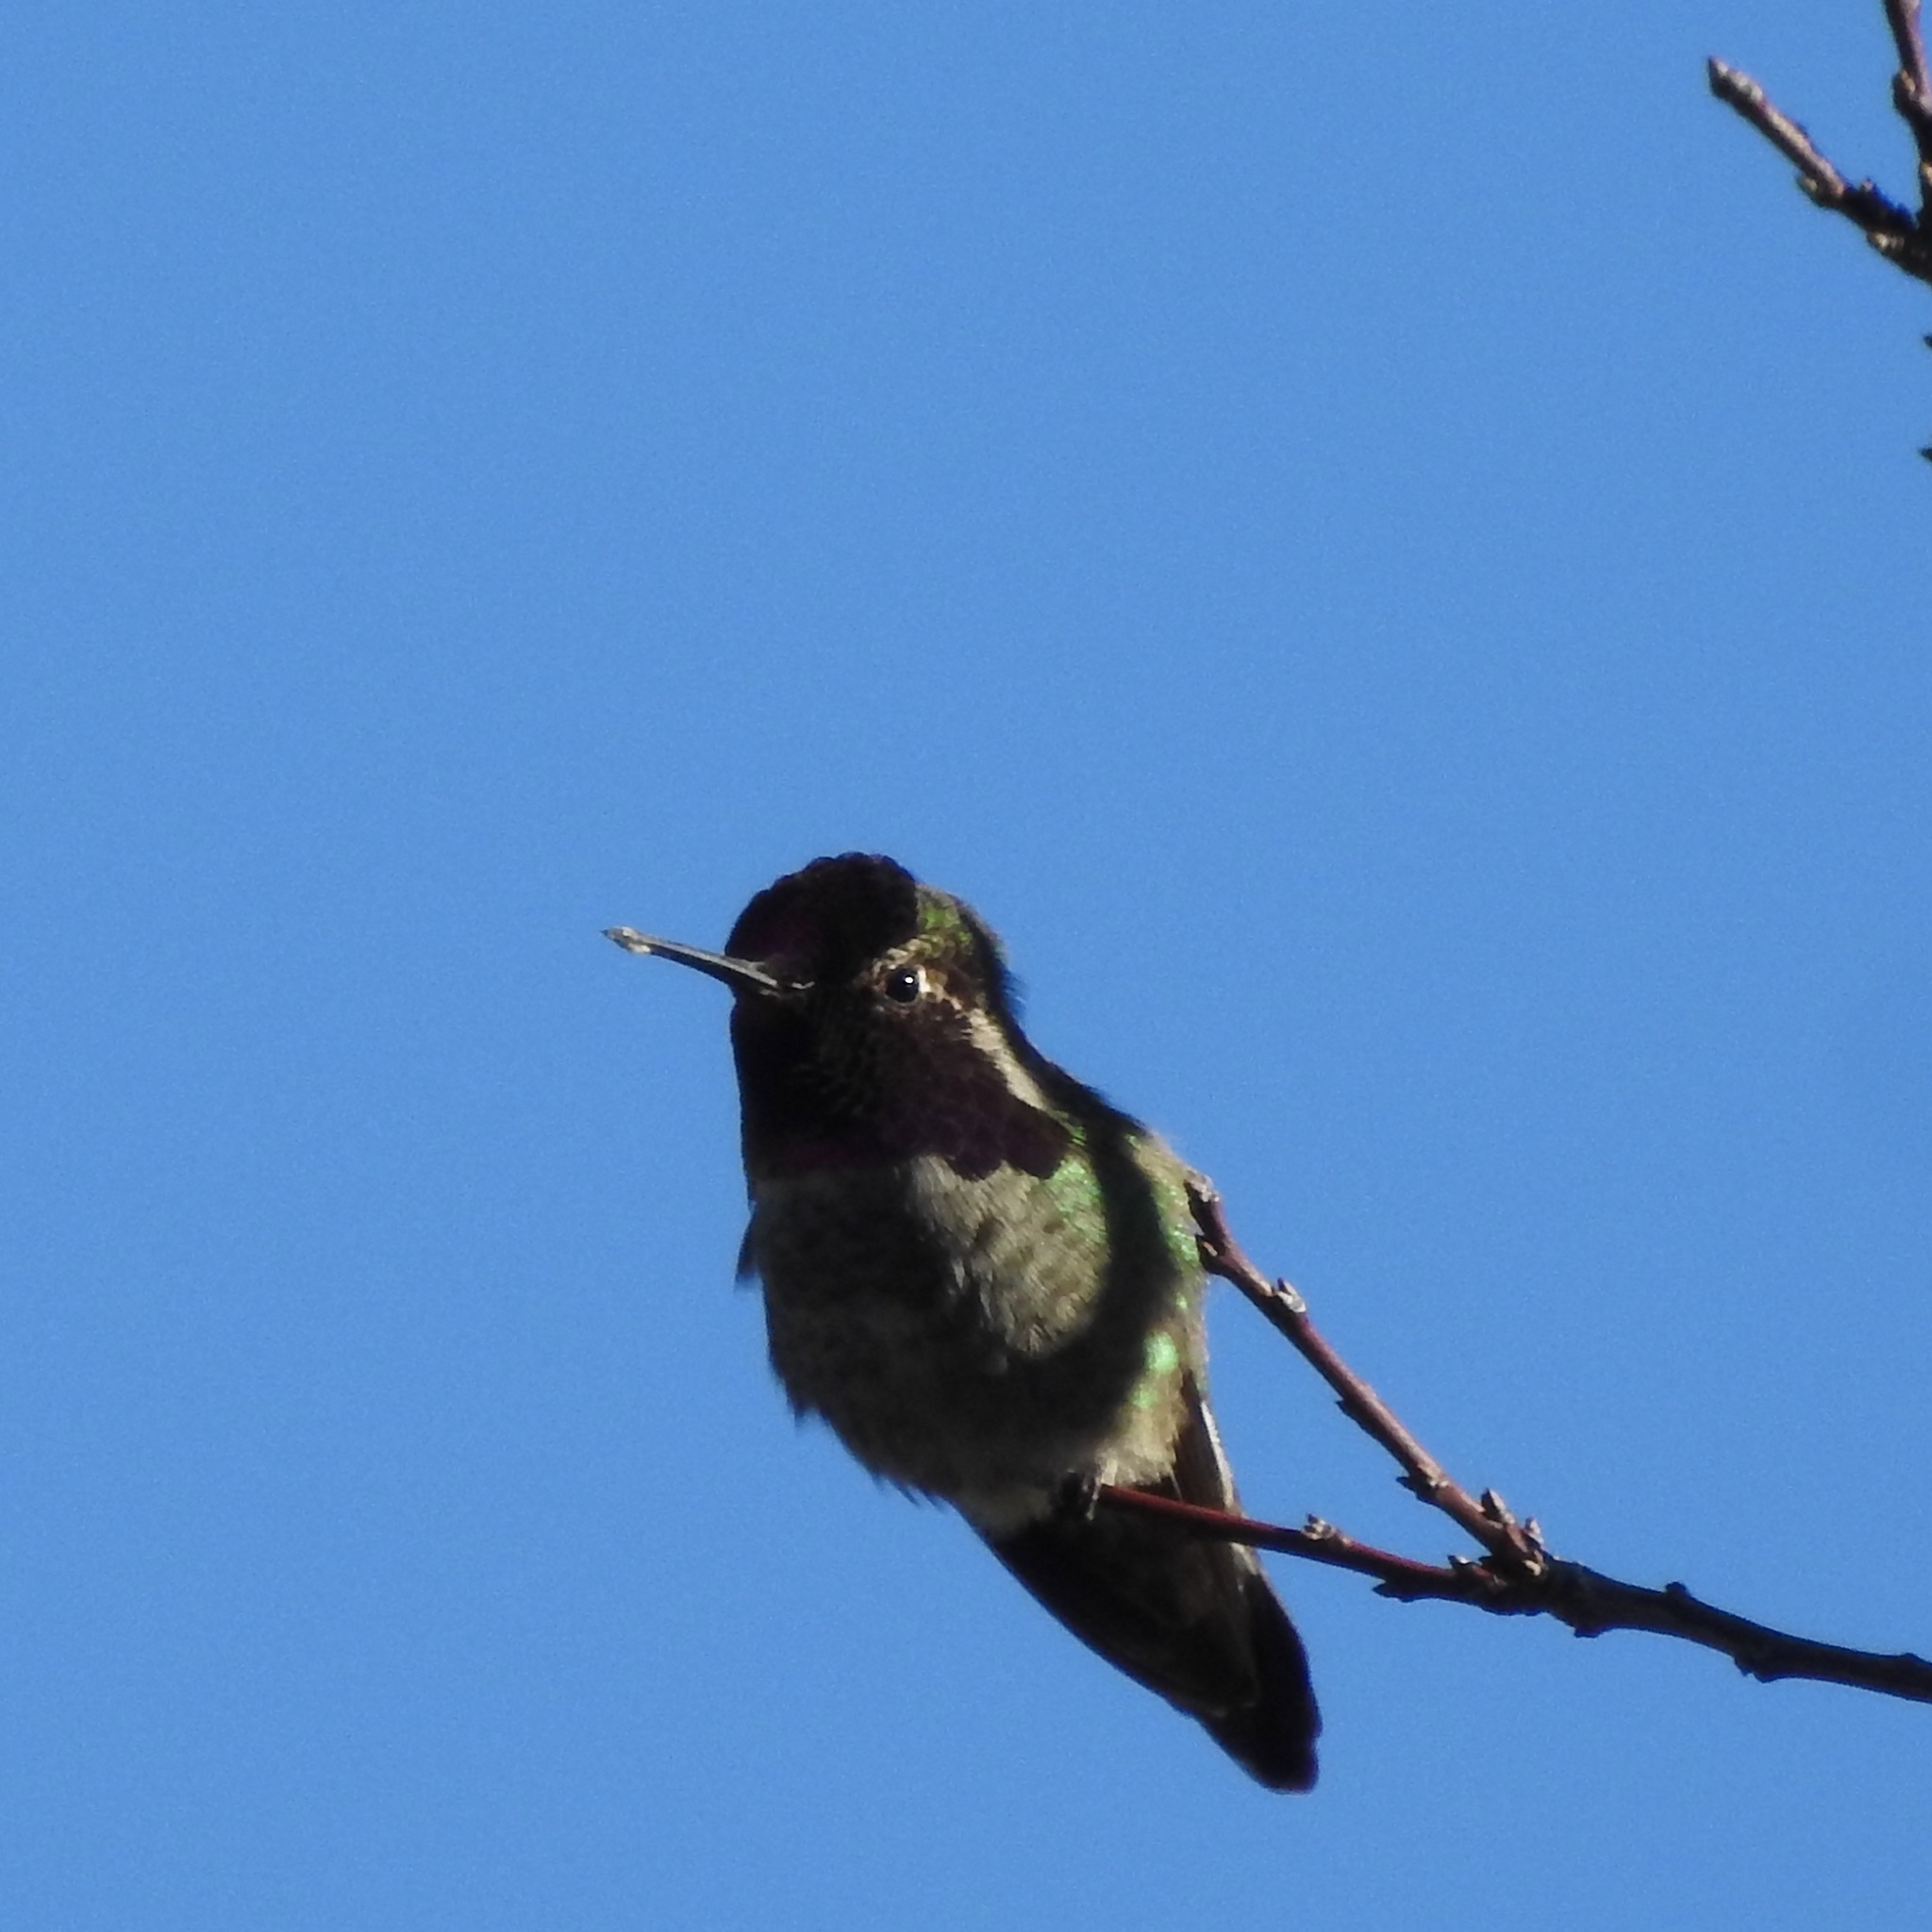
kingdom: Animalia
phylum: Chordata
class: Aves
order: Apodiformes
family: Trochilidae
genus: Calypte
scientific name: Calypte anna
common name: Anna's hummingbird
